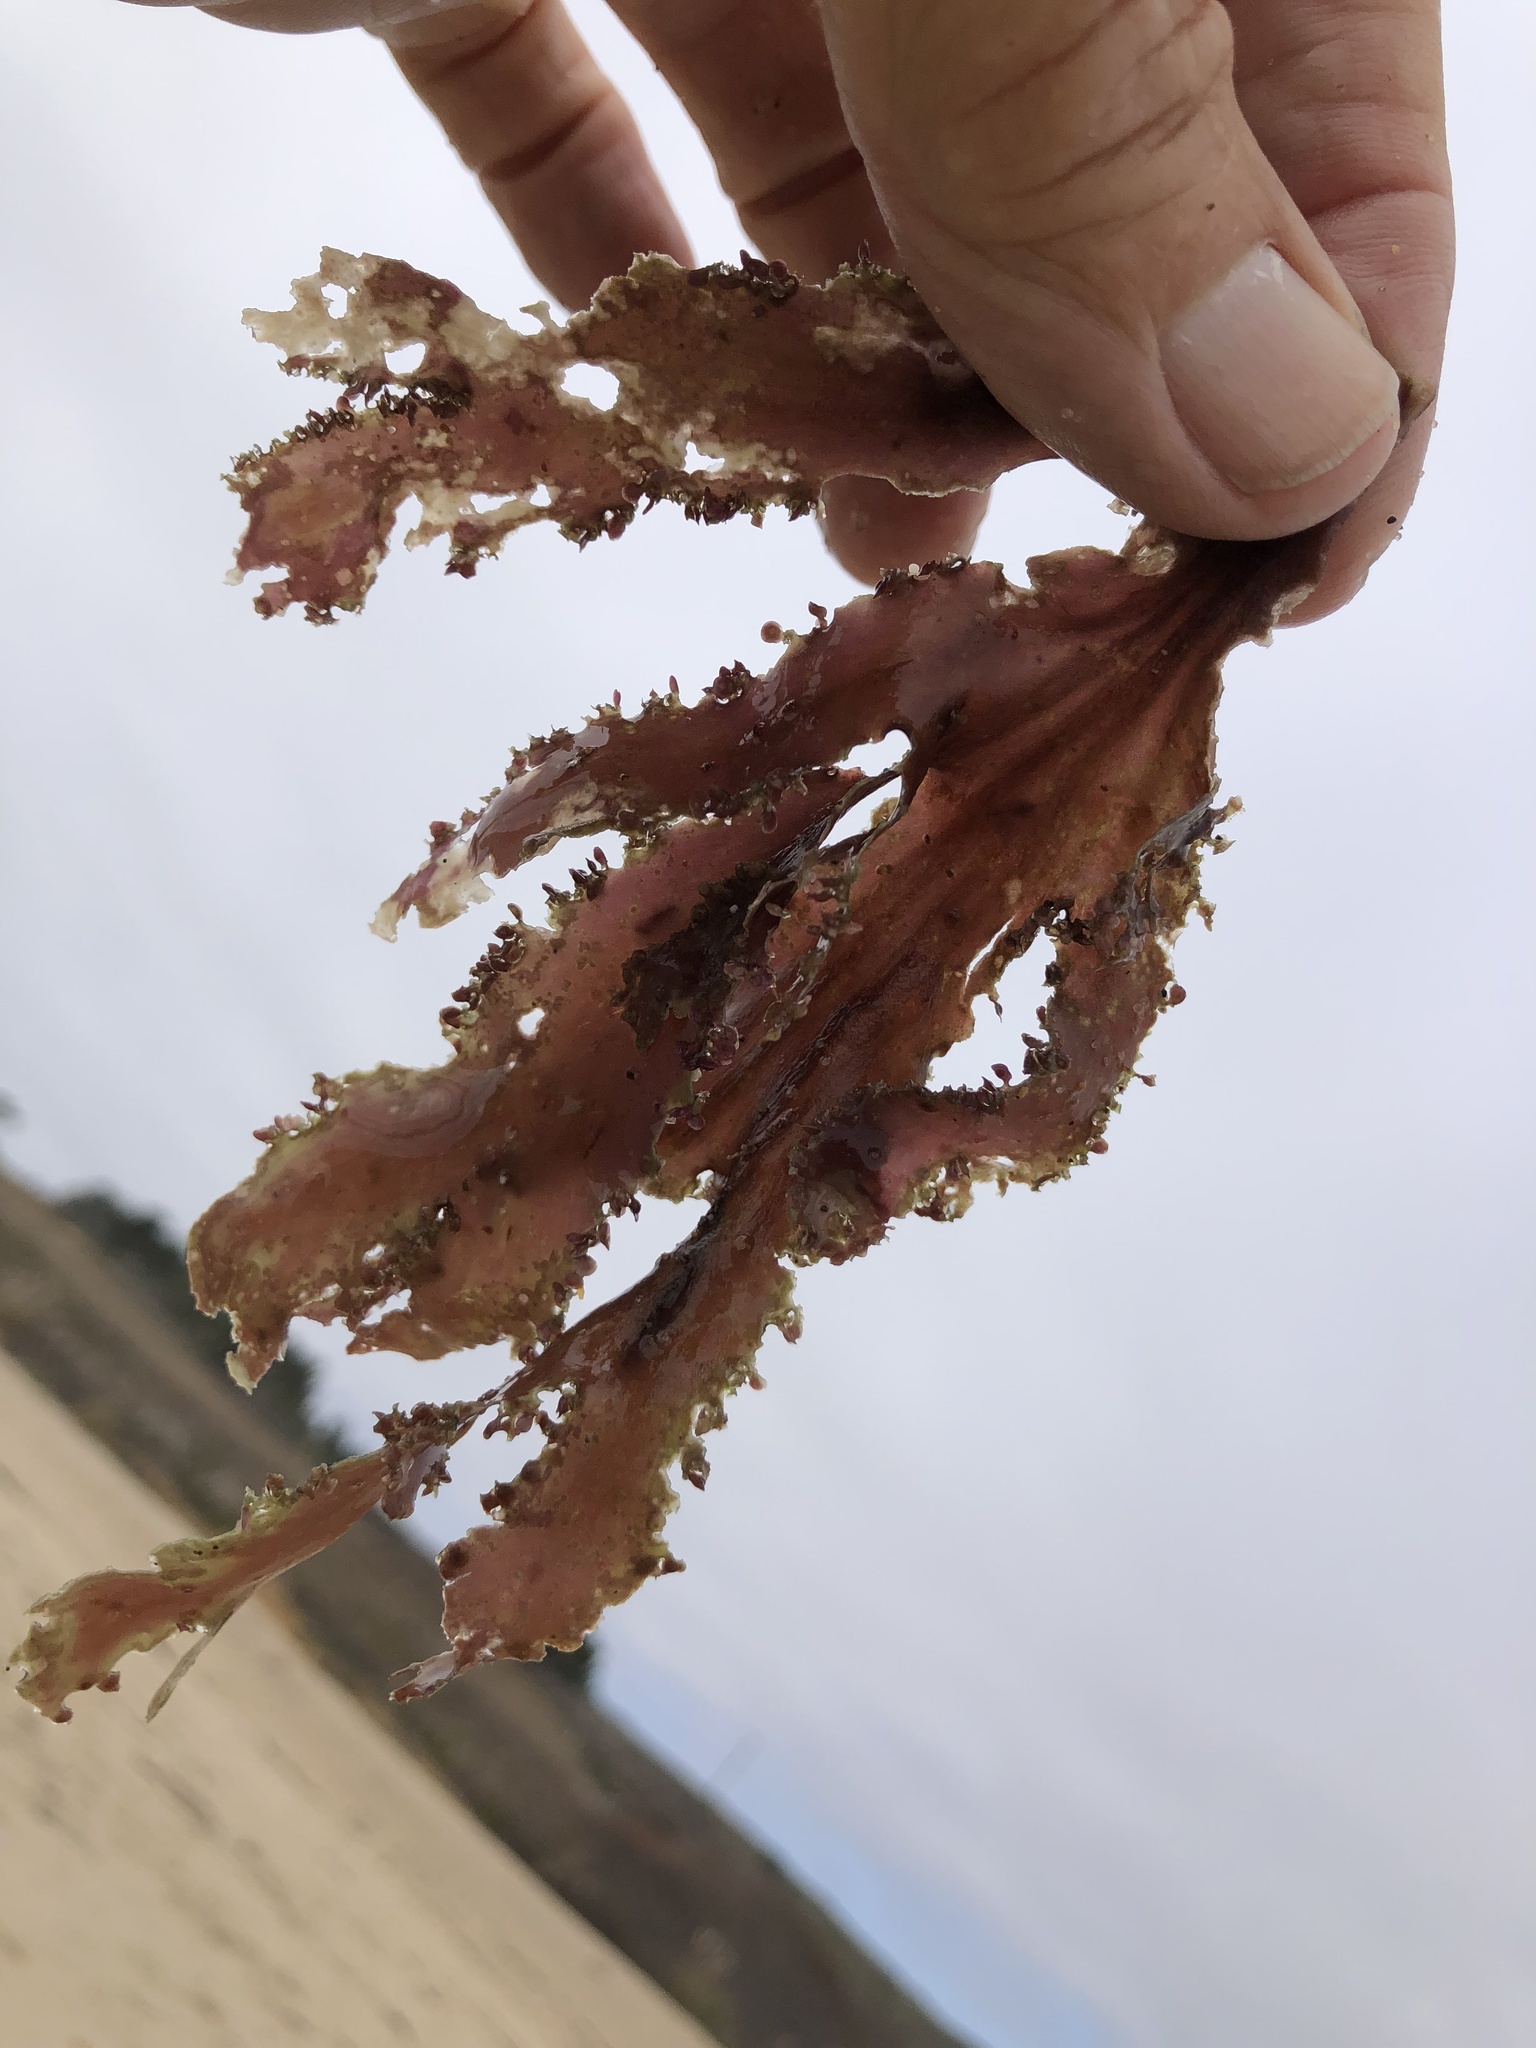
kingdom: Plantae
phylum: Rhodophyta
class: Florideophyceae
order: Ceramiales
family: Delesseriaceae
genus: Cryptopleura
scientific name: Cryptopleura ruprechtiana
